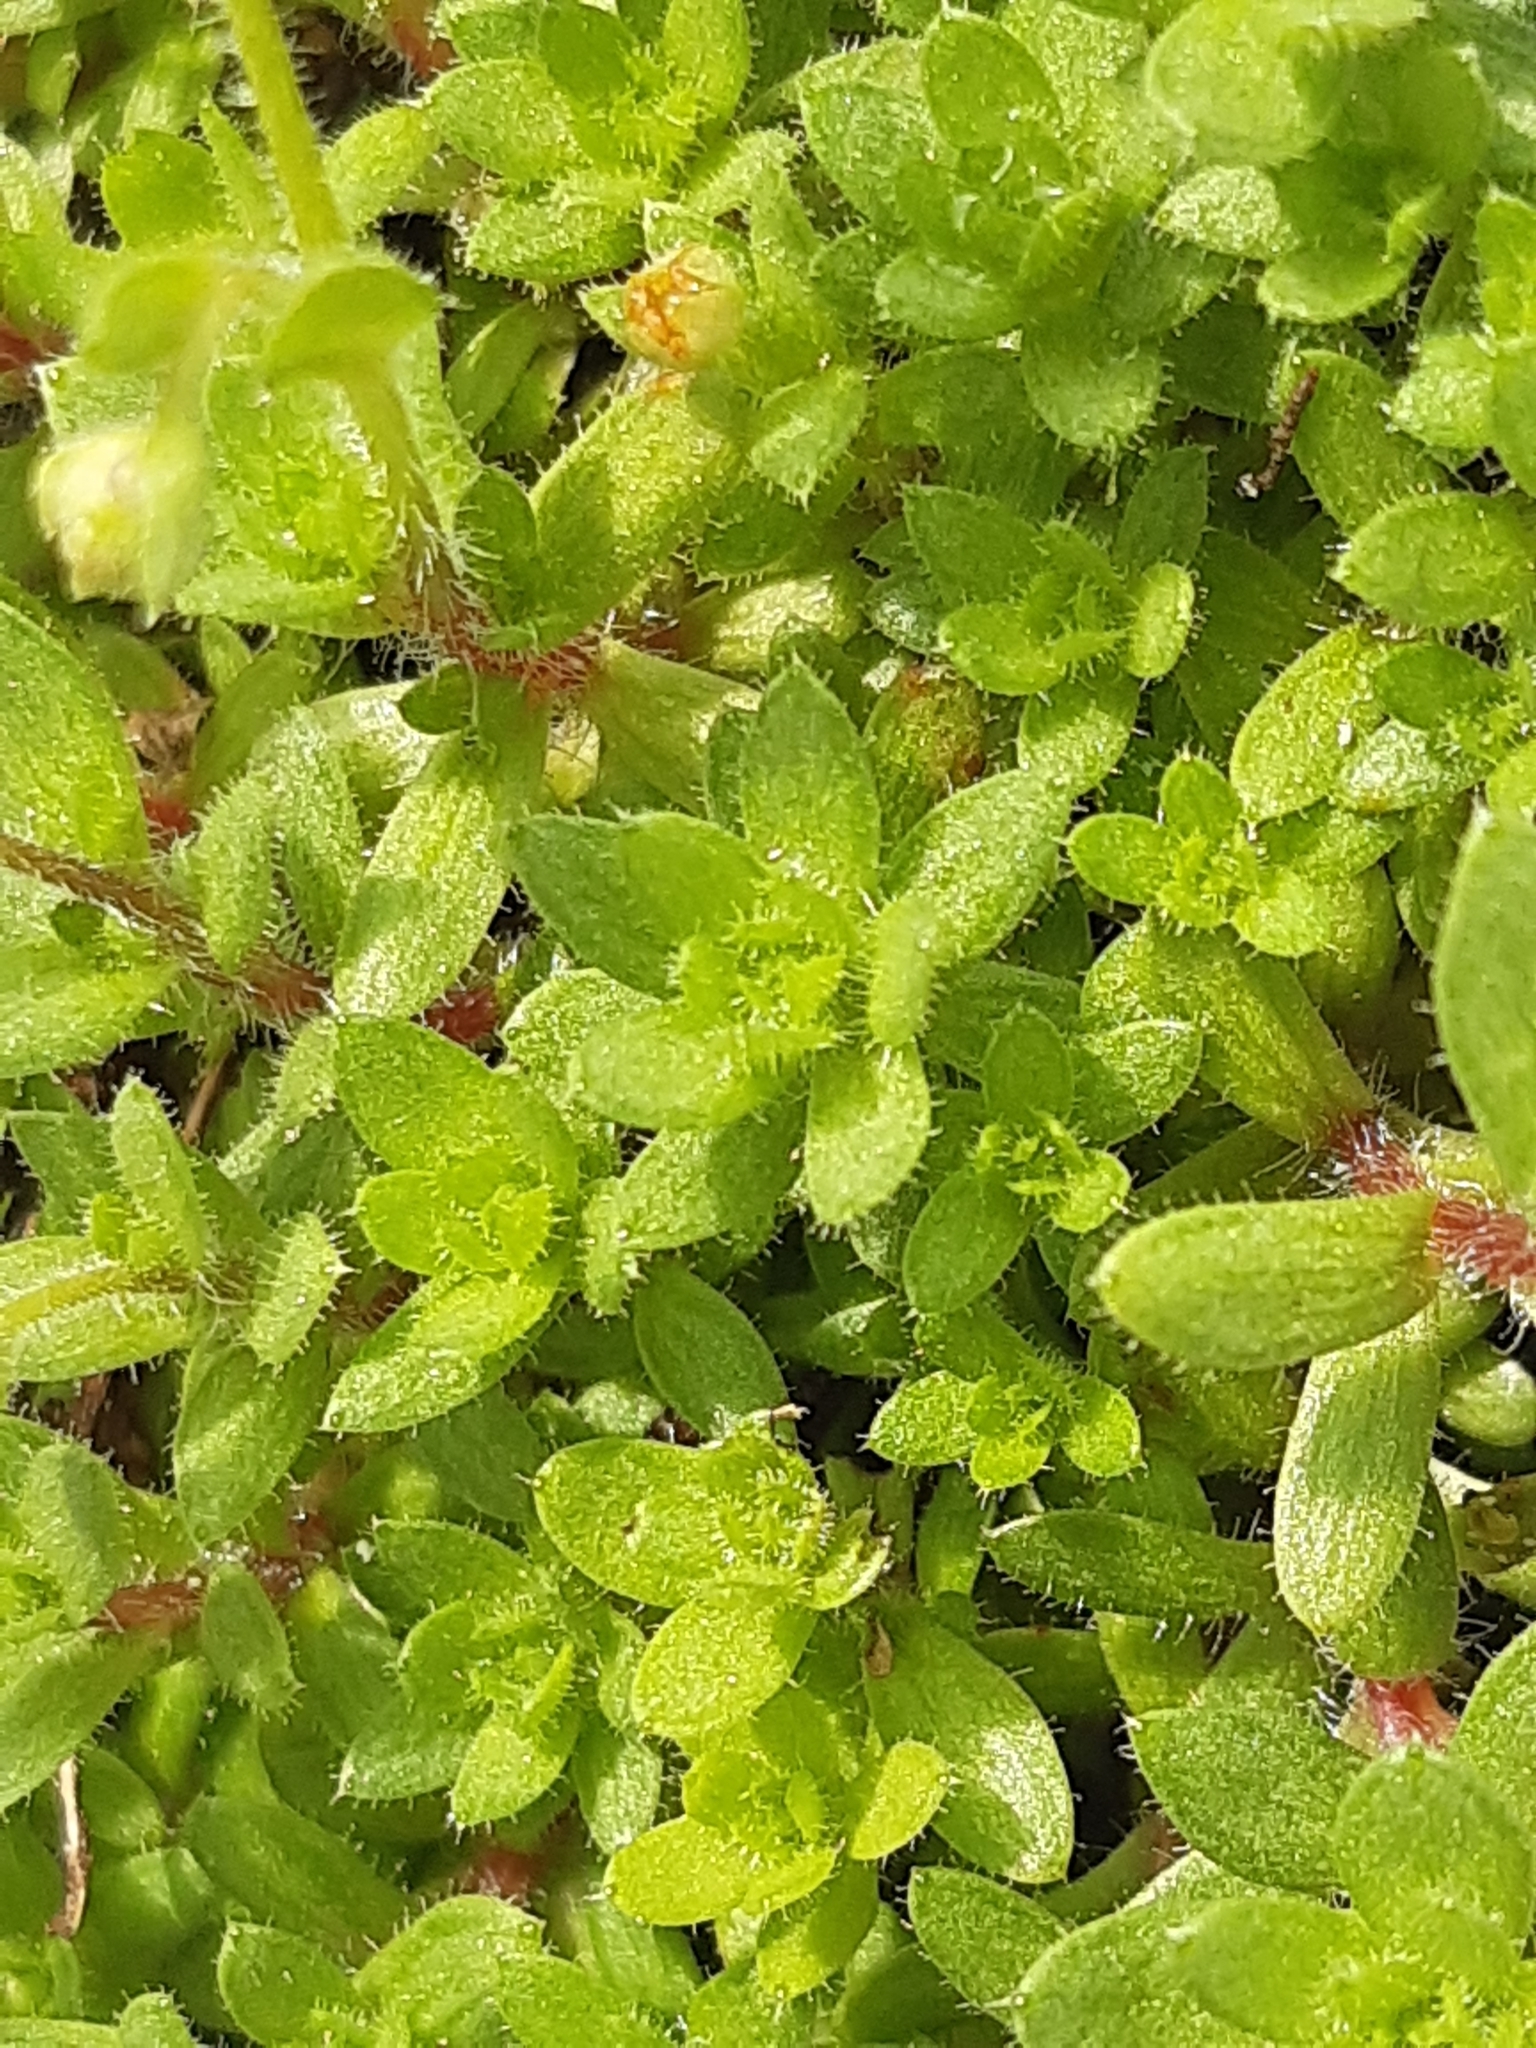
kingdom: Plantae
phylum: Tracheophyta
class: Magnoliopsida
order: Saxifragales
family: Saxifragaceae
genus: Saxifraga
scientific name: Saxifraga sedoides
